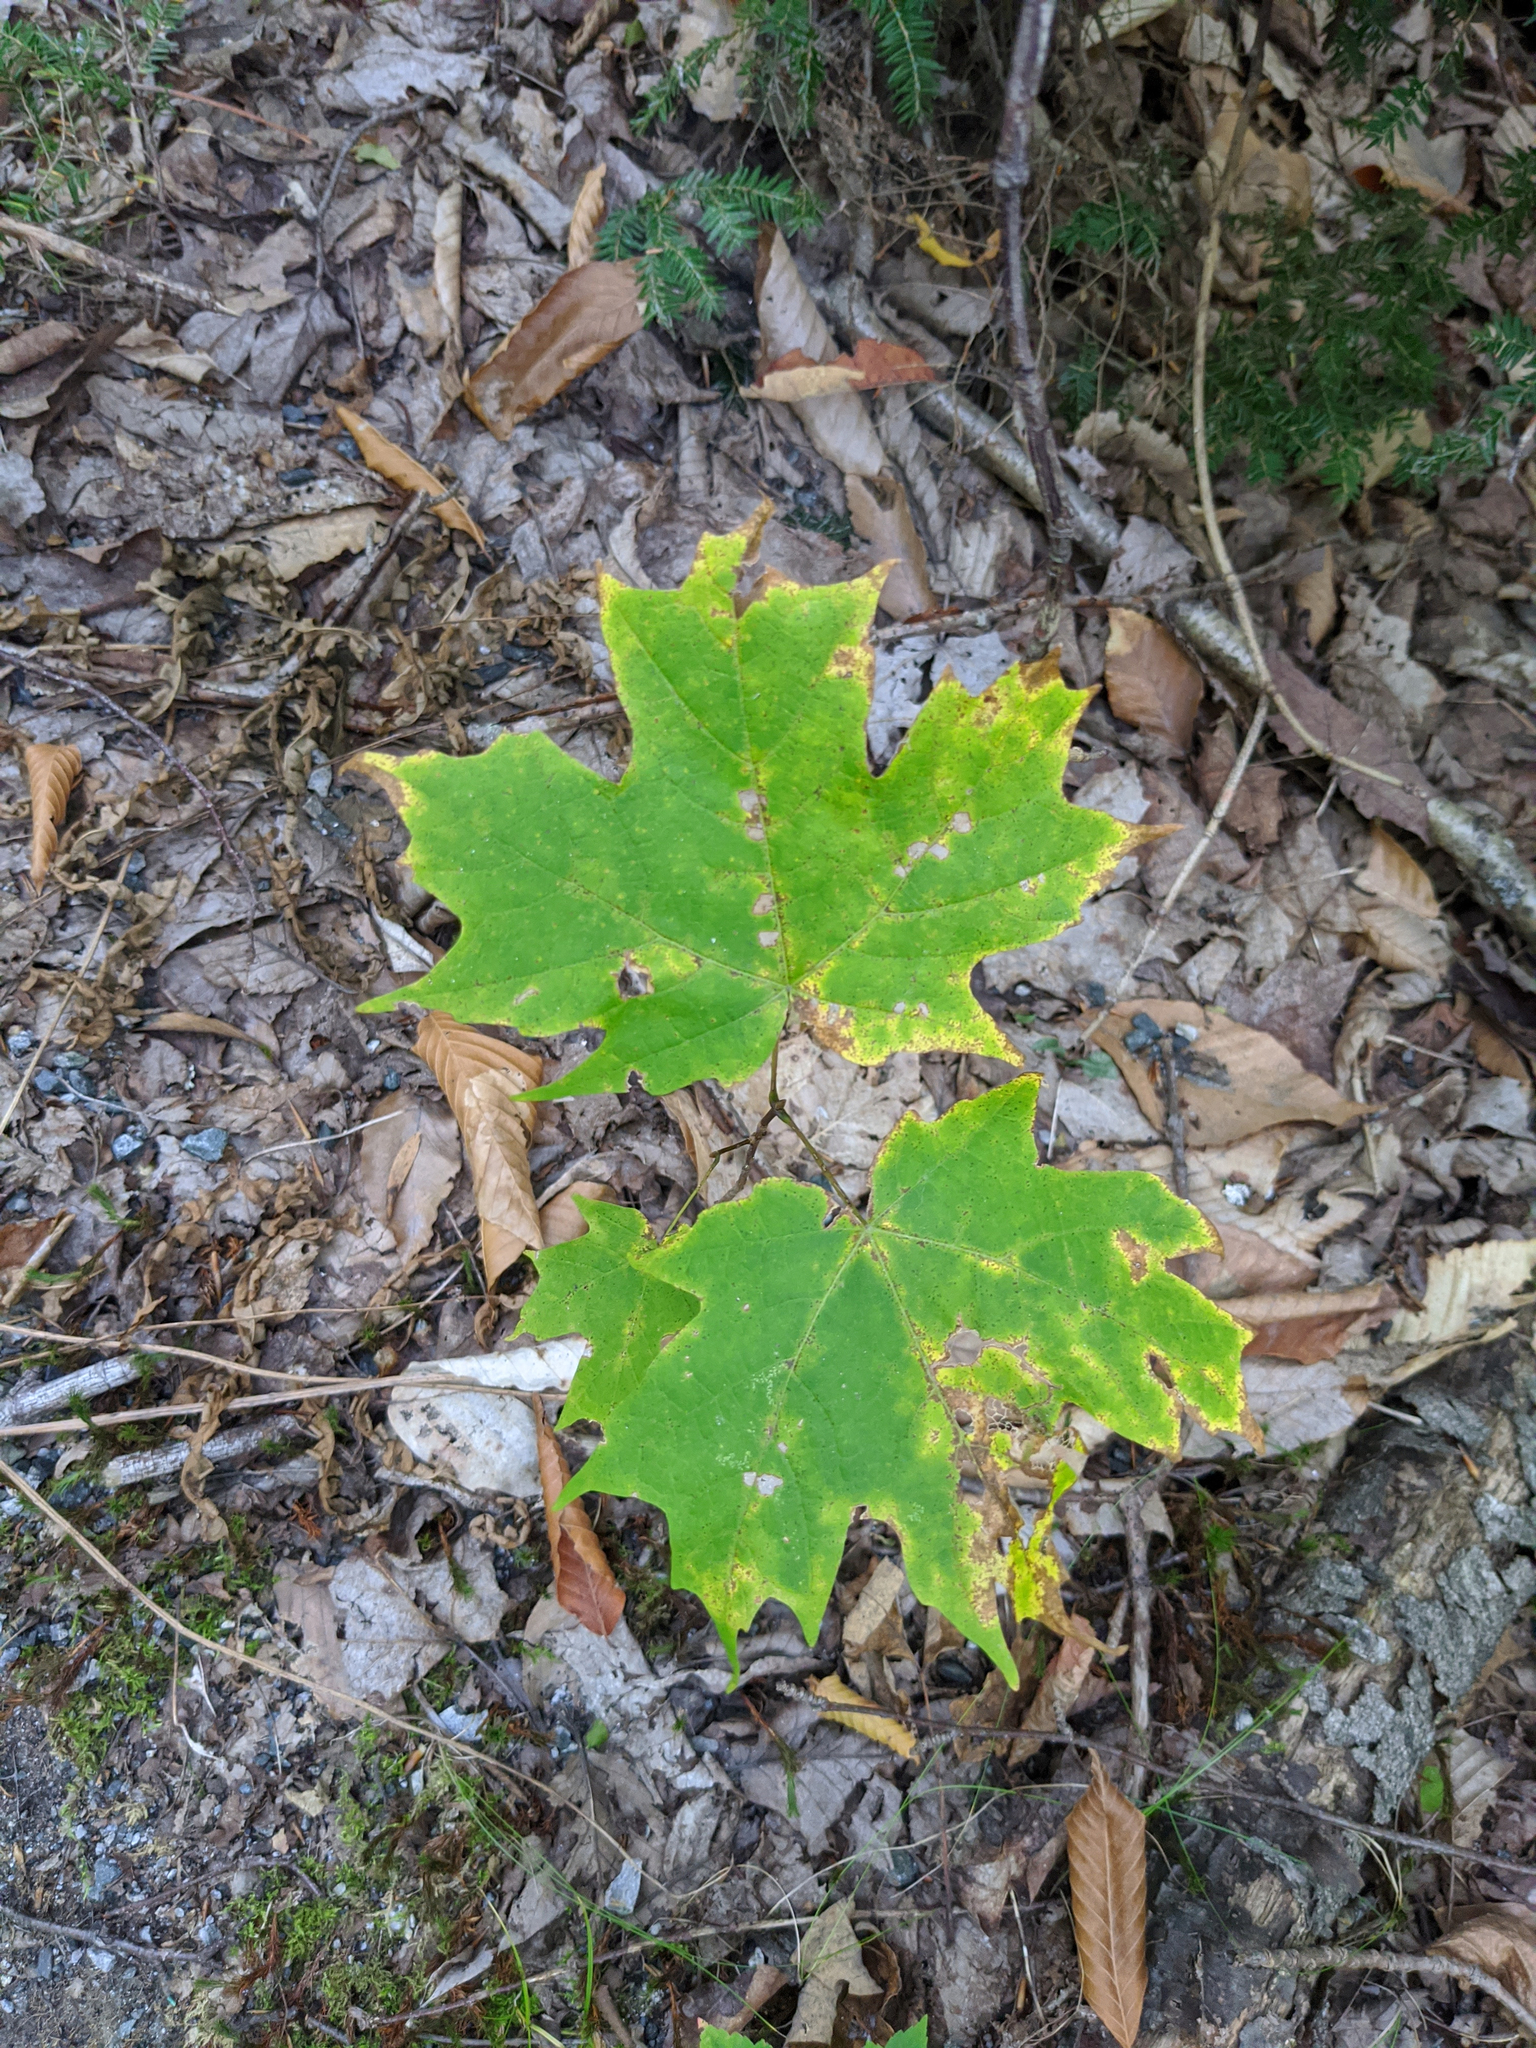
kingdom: Plantae
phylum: Tracheophyta
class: Magnoliopsida
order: Sapindales
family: Sapindaceae
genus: Acer
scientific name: Acer saccharum
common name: Sugar maple
